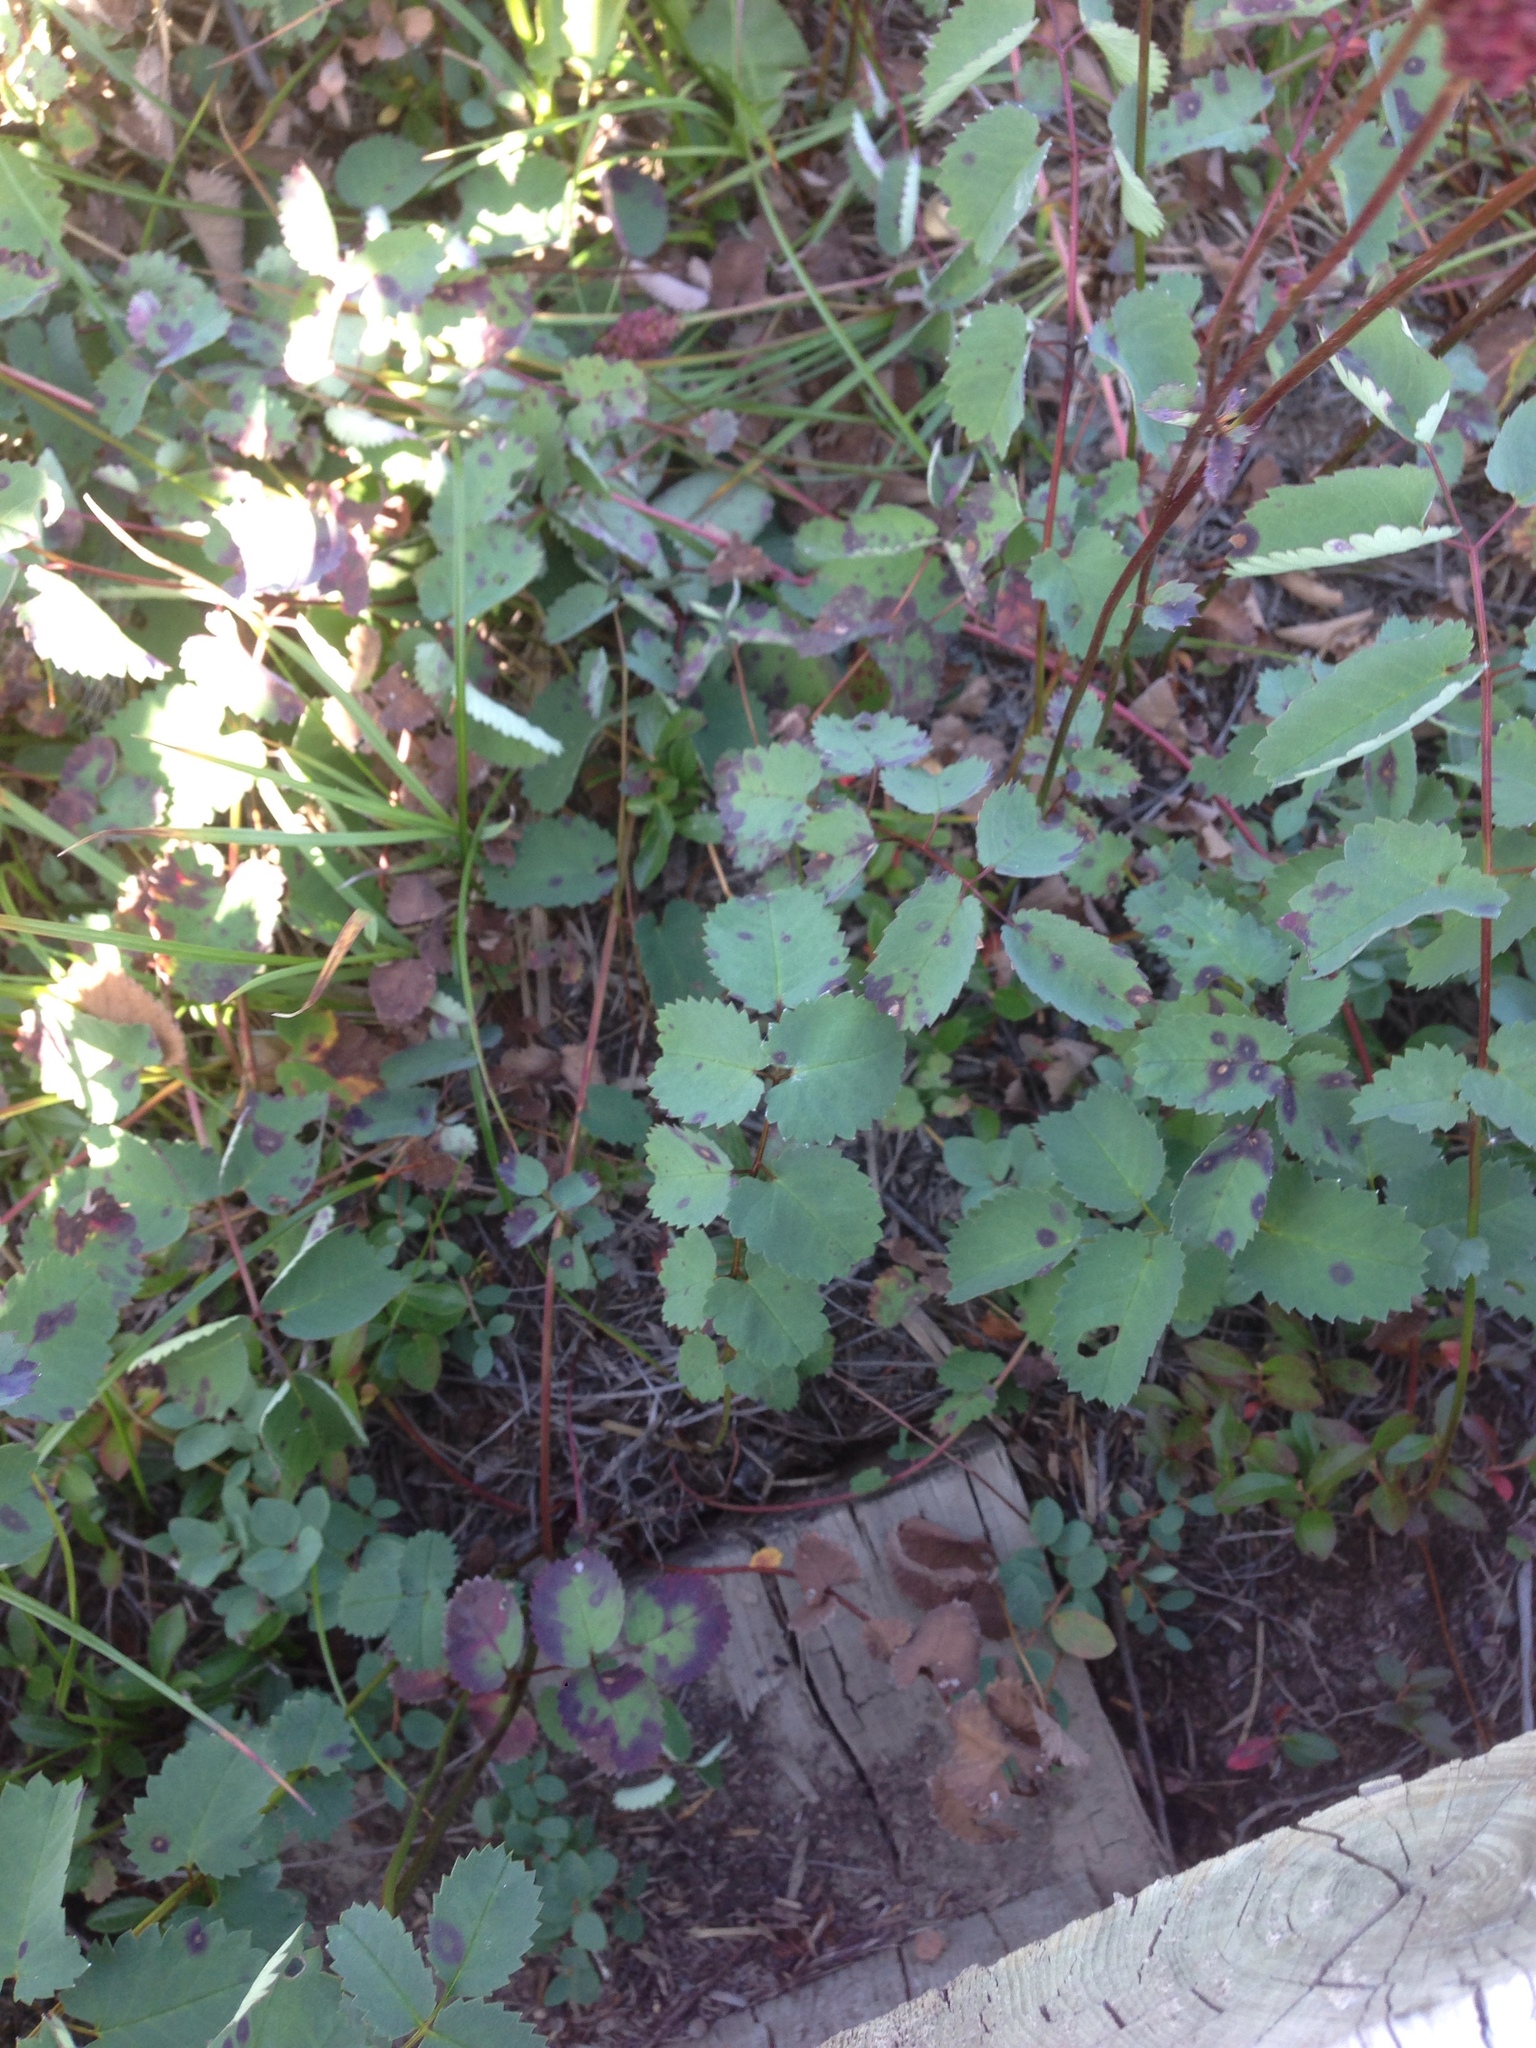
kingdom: Plantae
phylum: Tracheophyta
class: Magnoliopsida
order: Rosales
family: Rosaceae
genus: Sanguisorba
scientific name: Sanguisorba officinalis
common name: Great burnet
